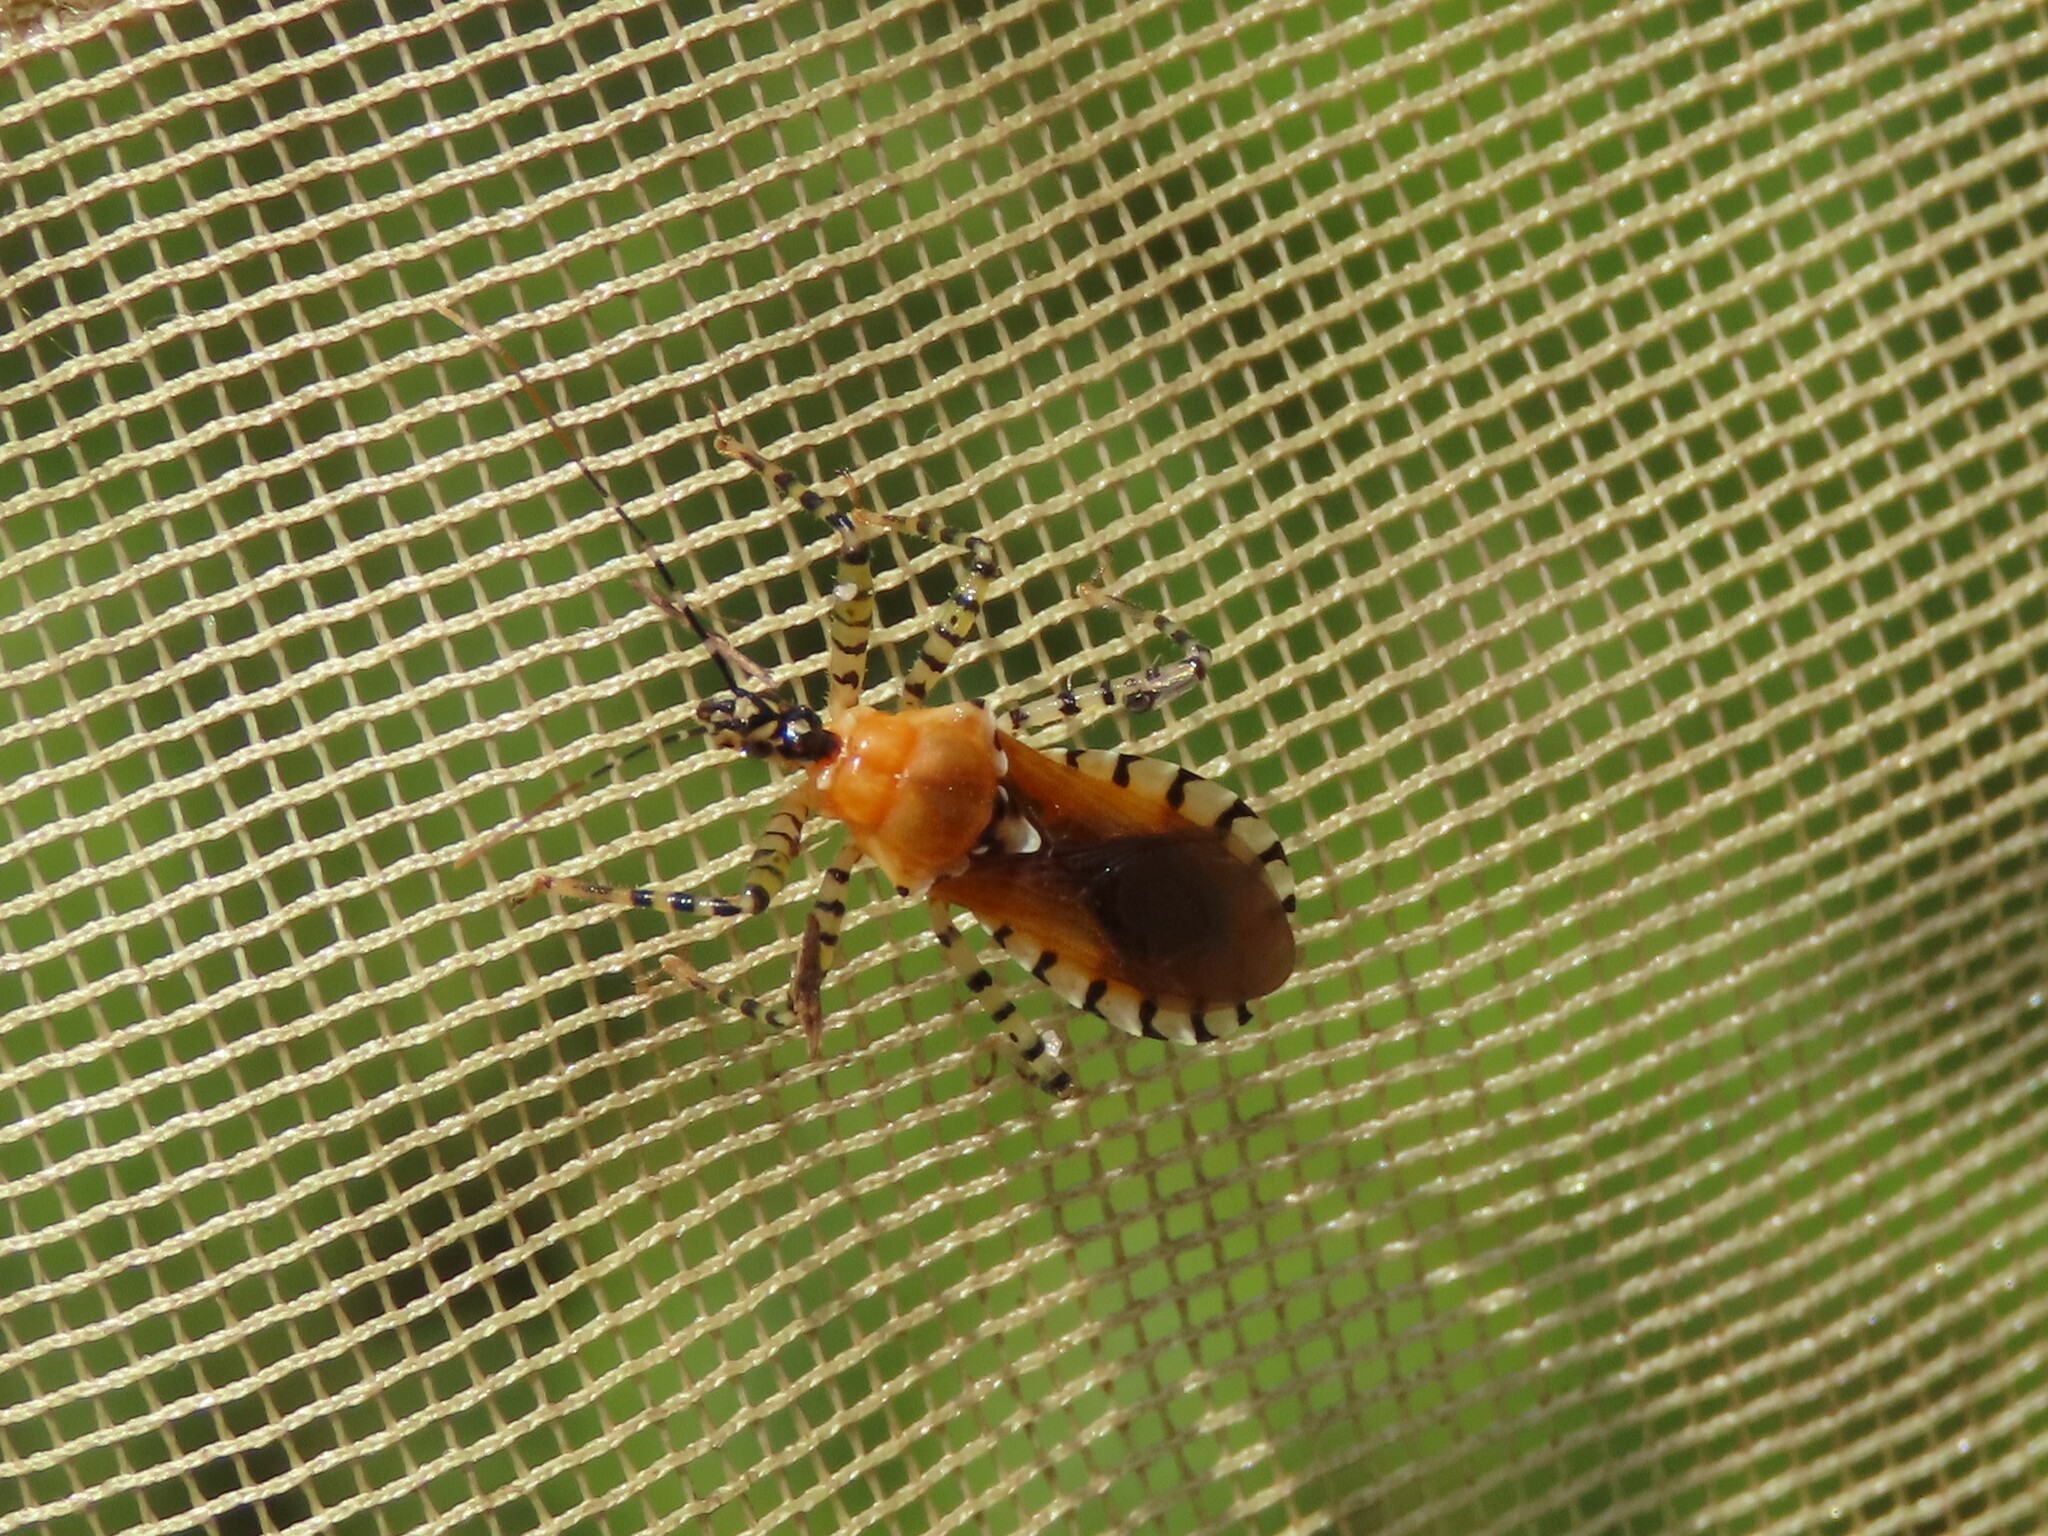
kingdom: Animalia
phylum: Arthropoda
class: Insecta
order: Hemiptera
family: Reduviidae
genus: Pselliopus
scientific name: Pselliopus cinctus
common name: Ringed assassin bug
